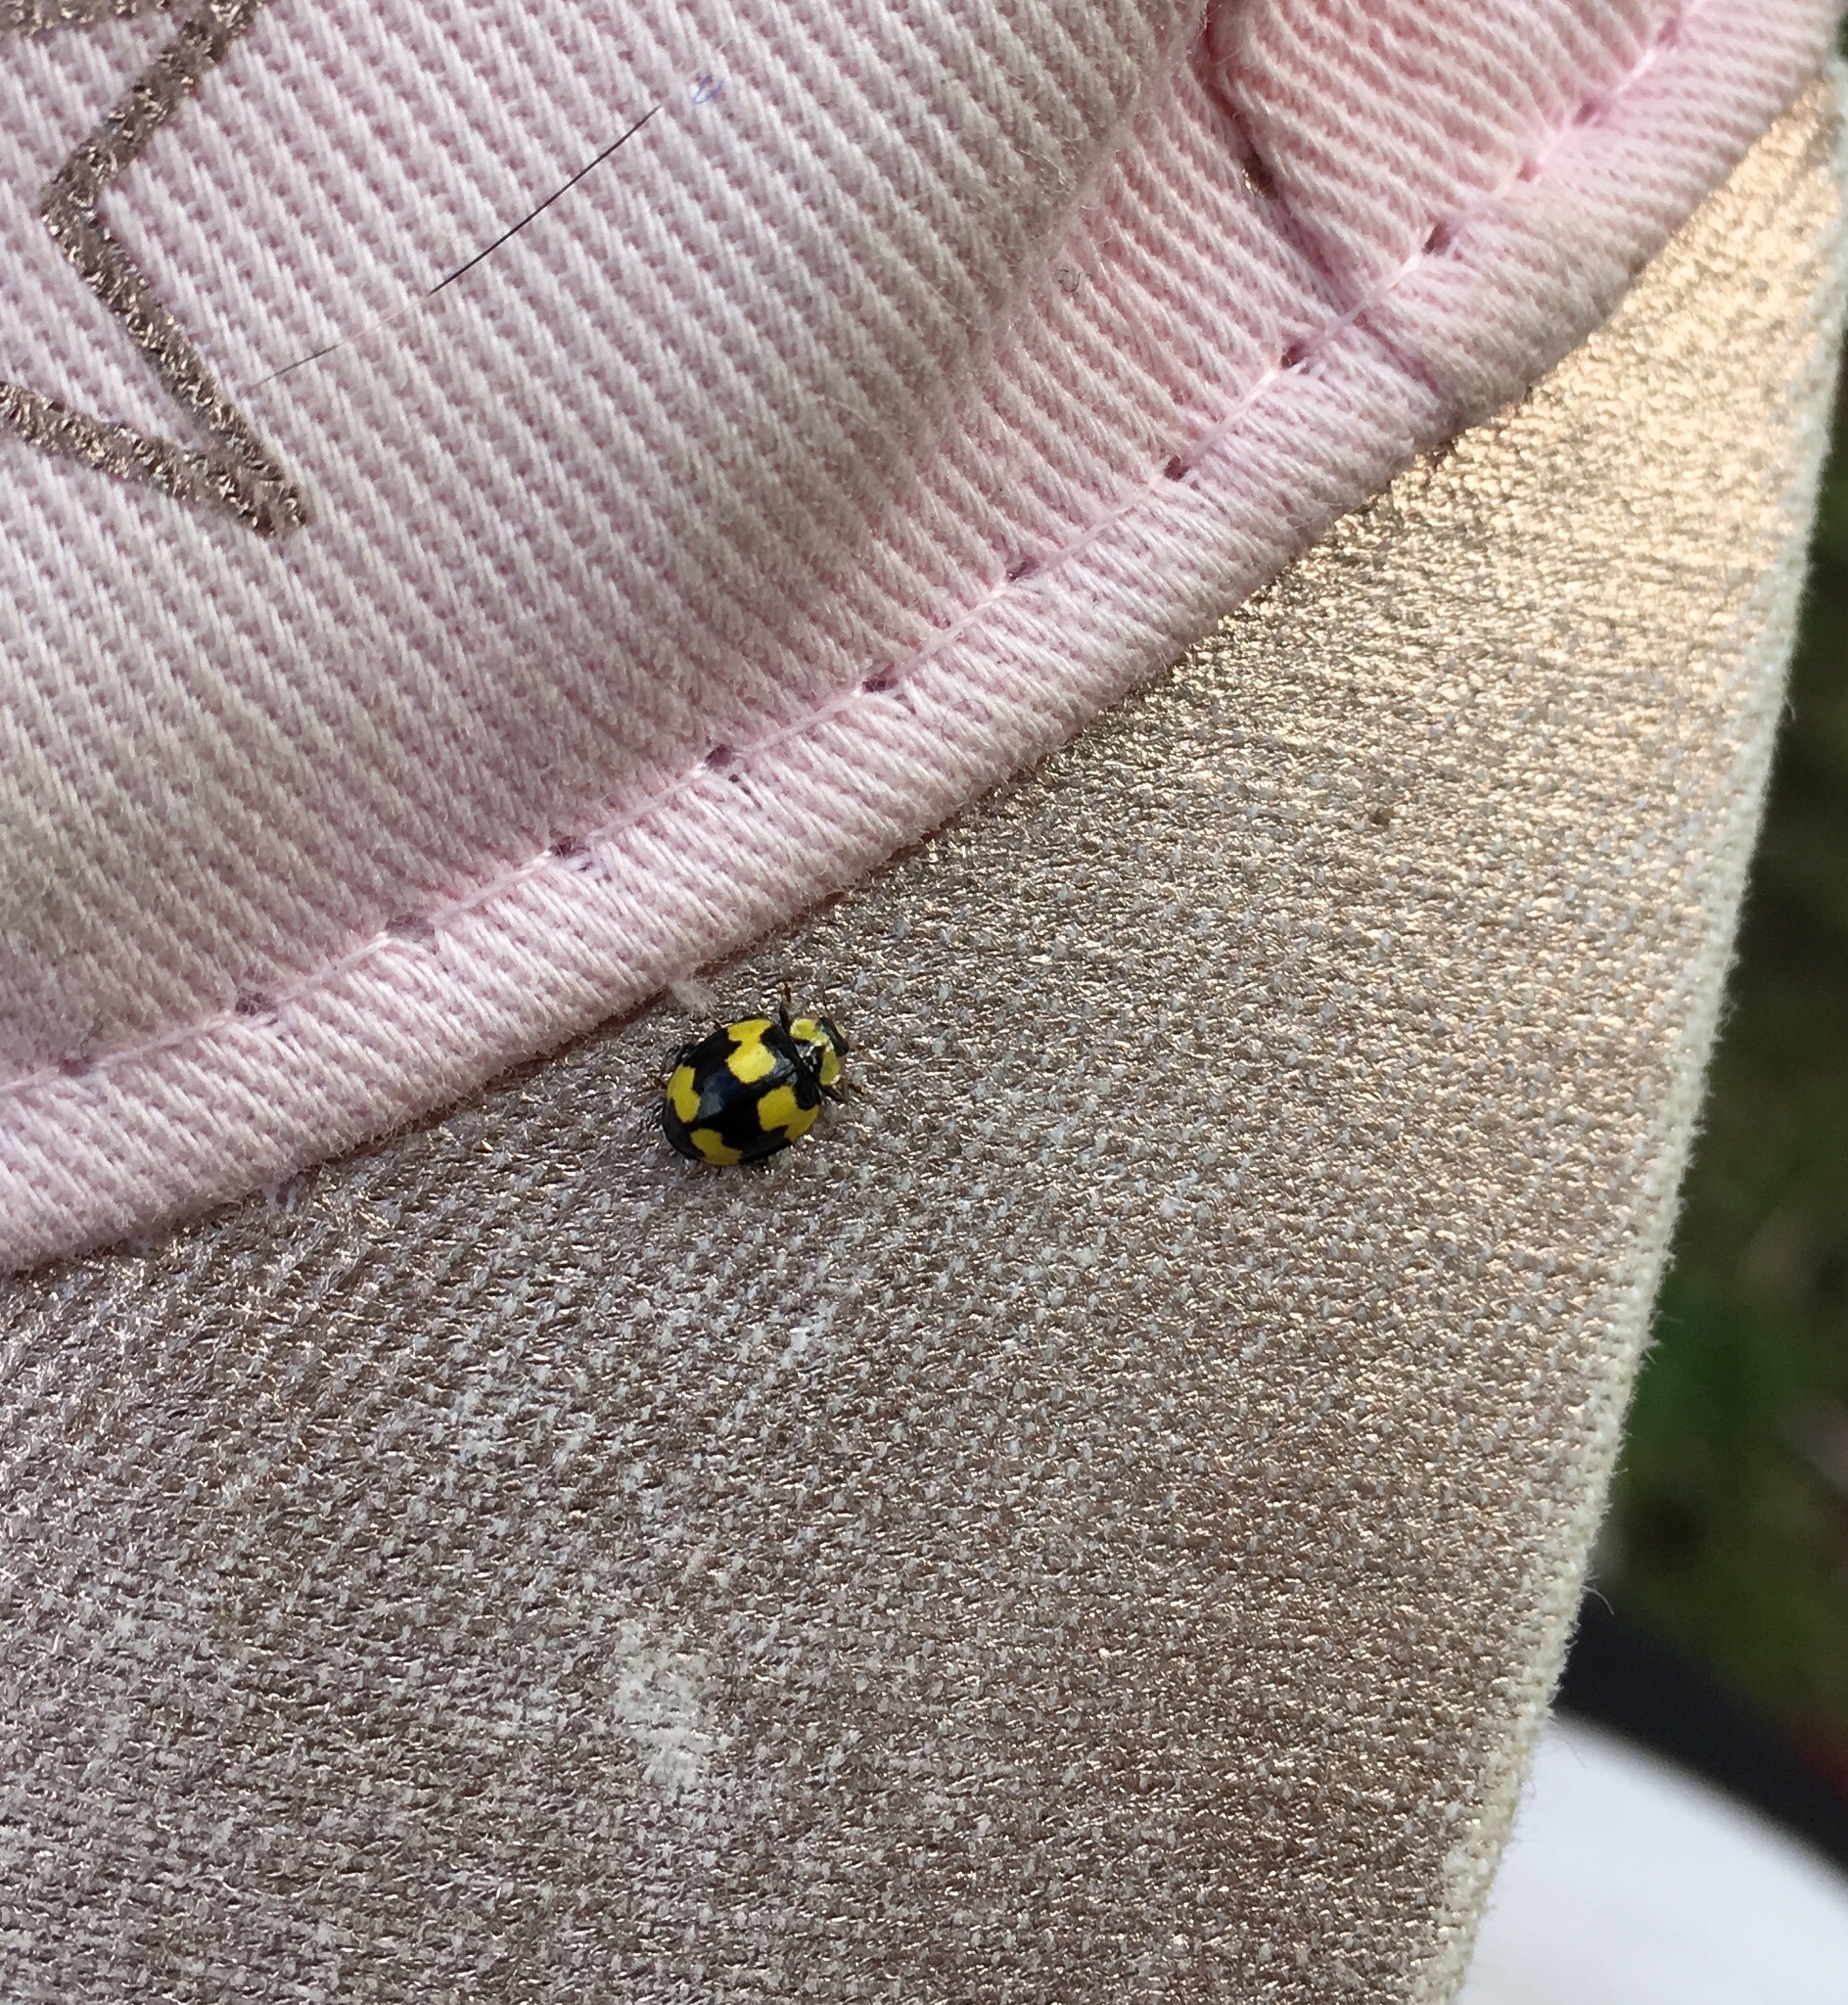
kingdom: Animalia
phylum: Arthropoda
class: Insecta
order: Coleoptera
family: Coccinellidae
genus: Illeis
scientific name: Illeis galbula
